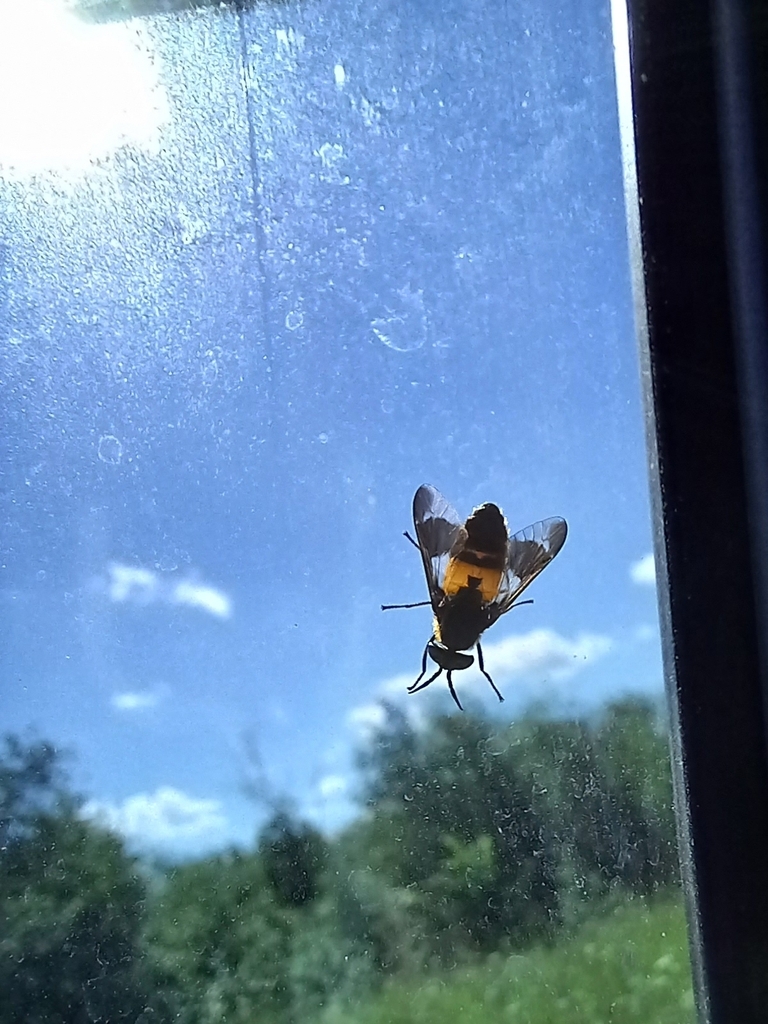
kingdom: Animalia
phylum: Arthropoda
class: Insecta
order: Diptera
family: Tabanidae
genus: Chrysops
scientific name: Chrysops viduatus
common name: Square-spot deerfly
